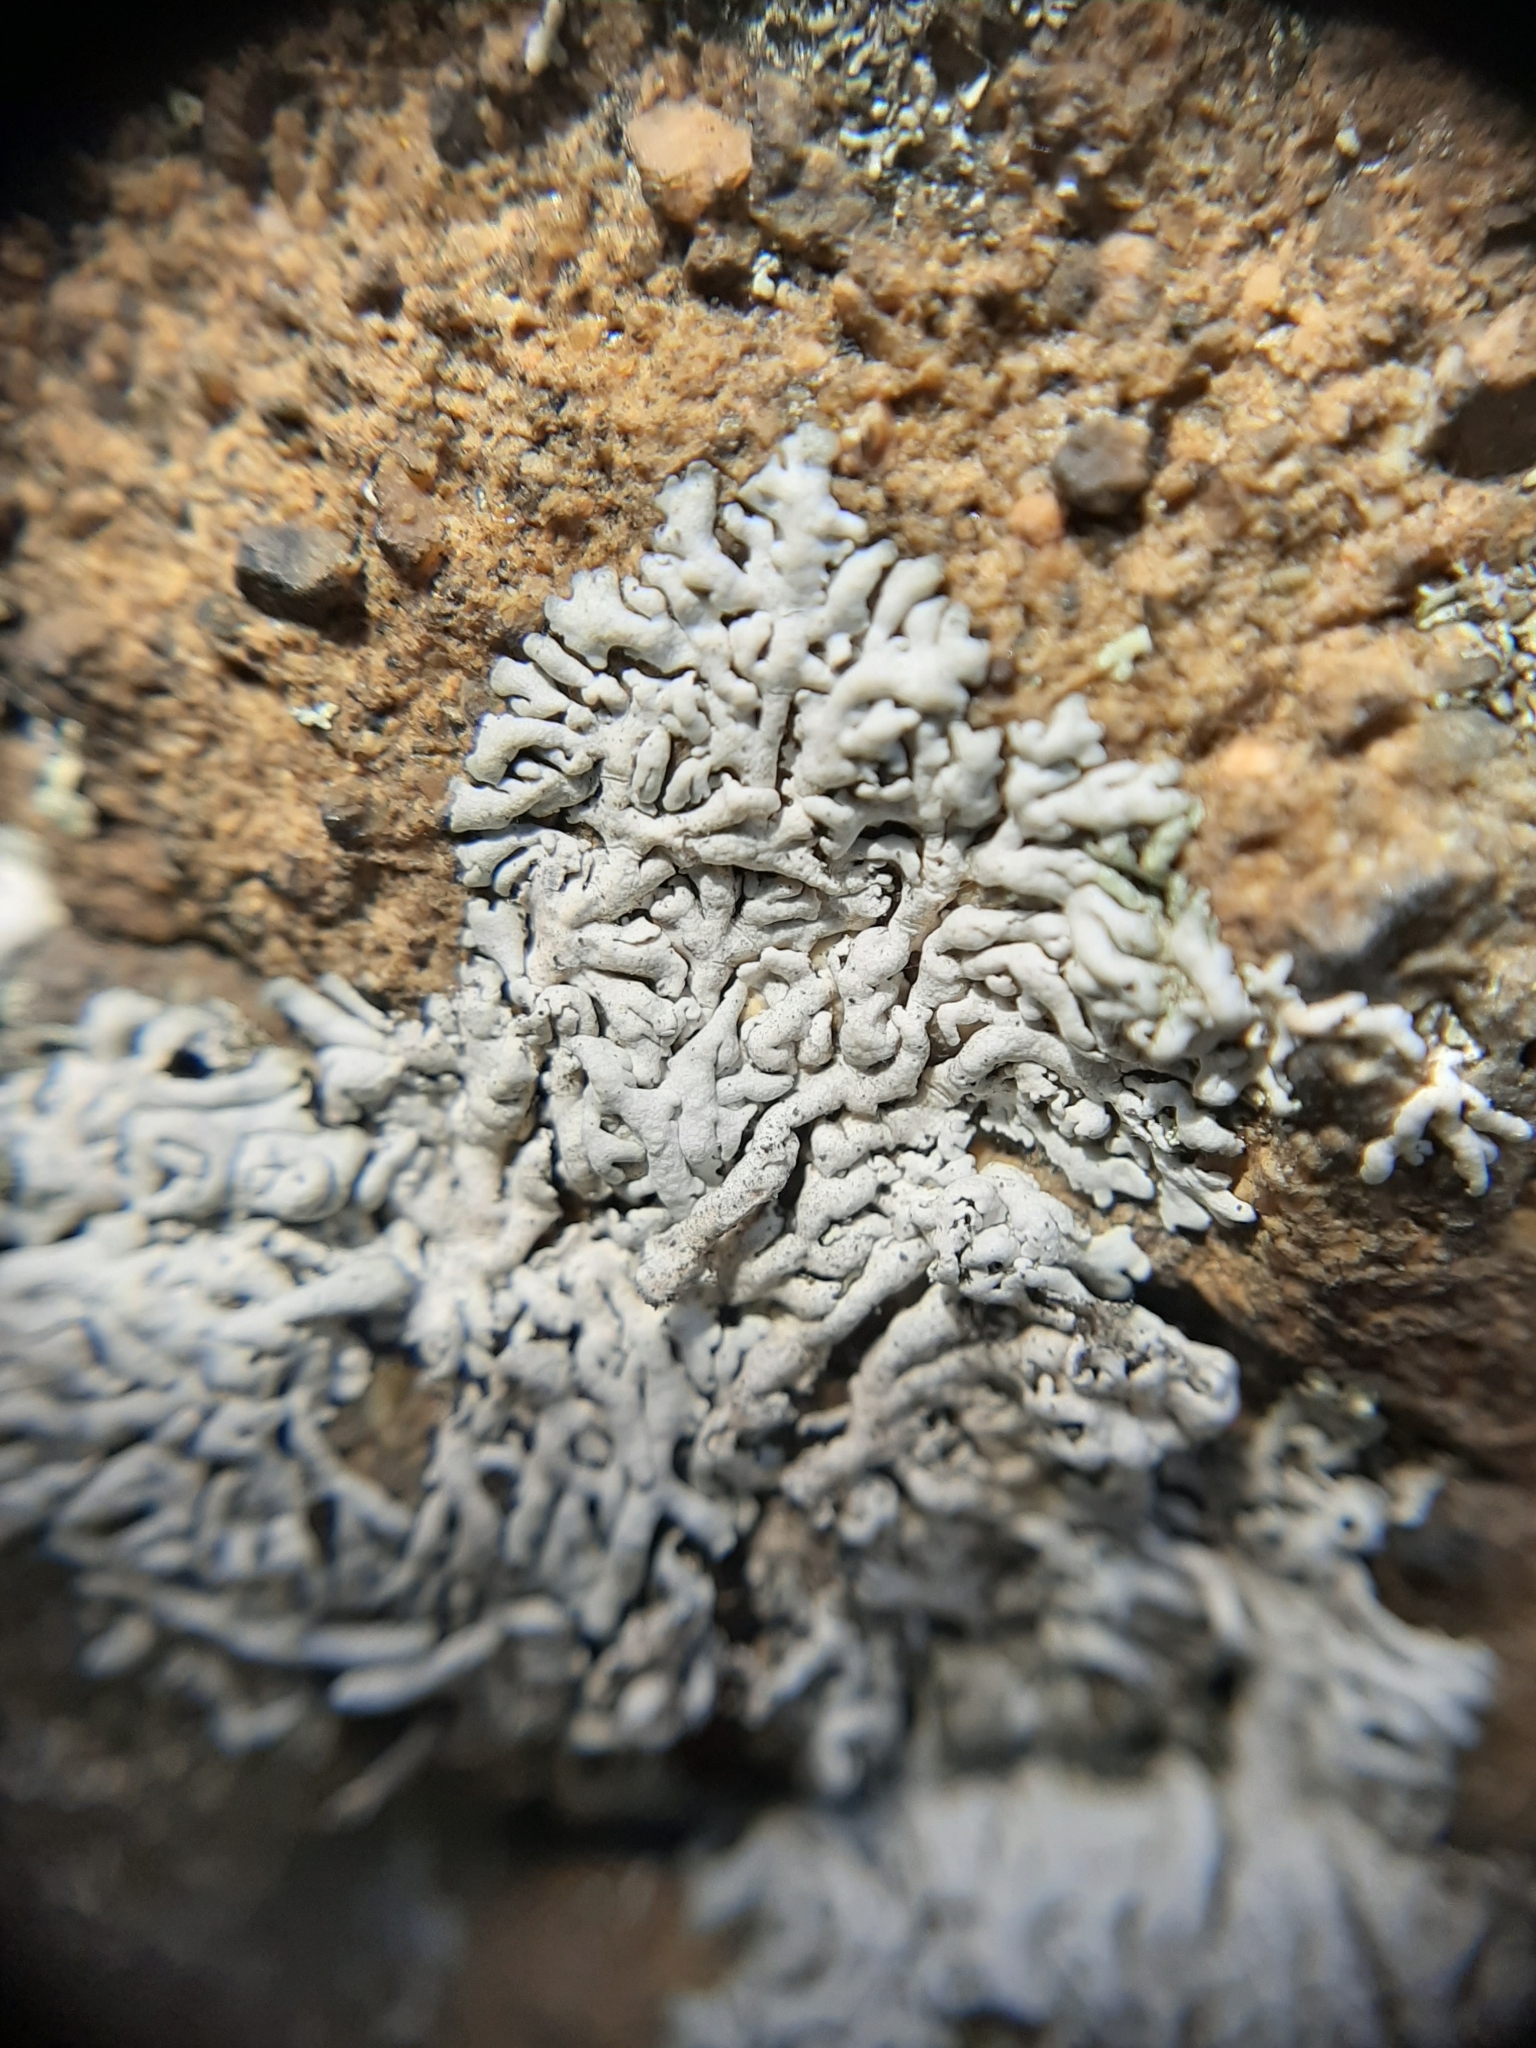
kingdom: Fungi
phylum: Ascomycota
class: Lecanoromycetes
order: Caliciales
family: Physciaceae
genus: Physcia
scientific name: Physcia caesia
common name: Blue-gray rosette lichen
